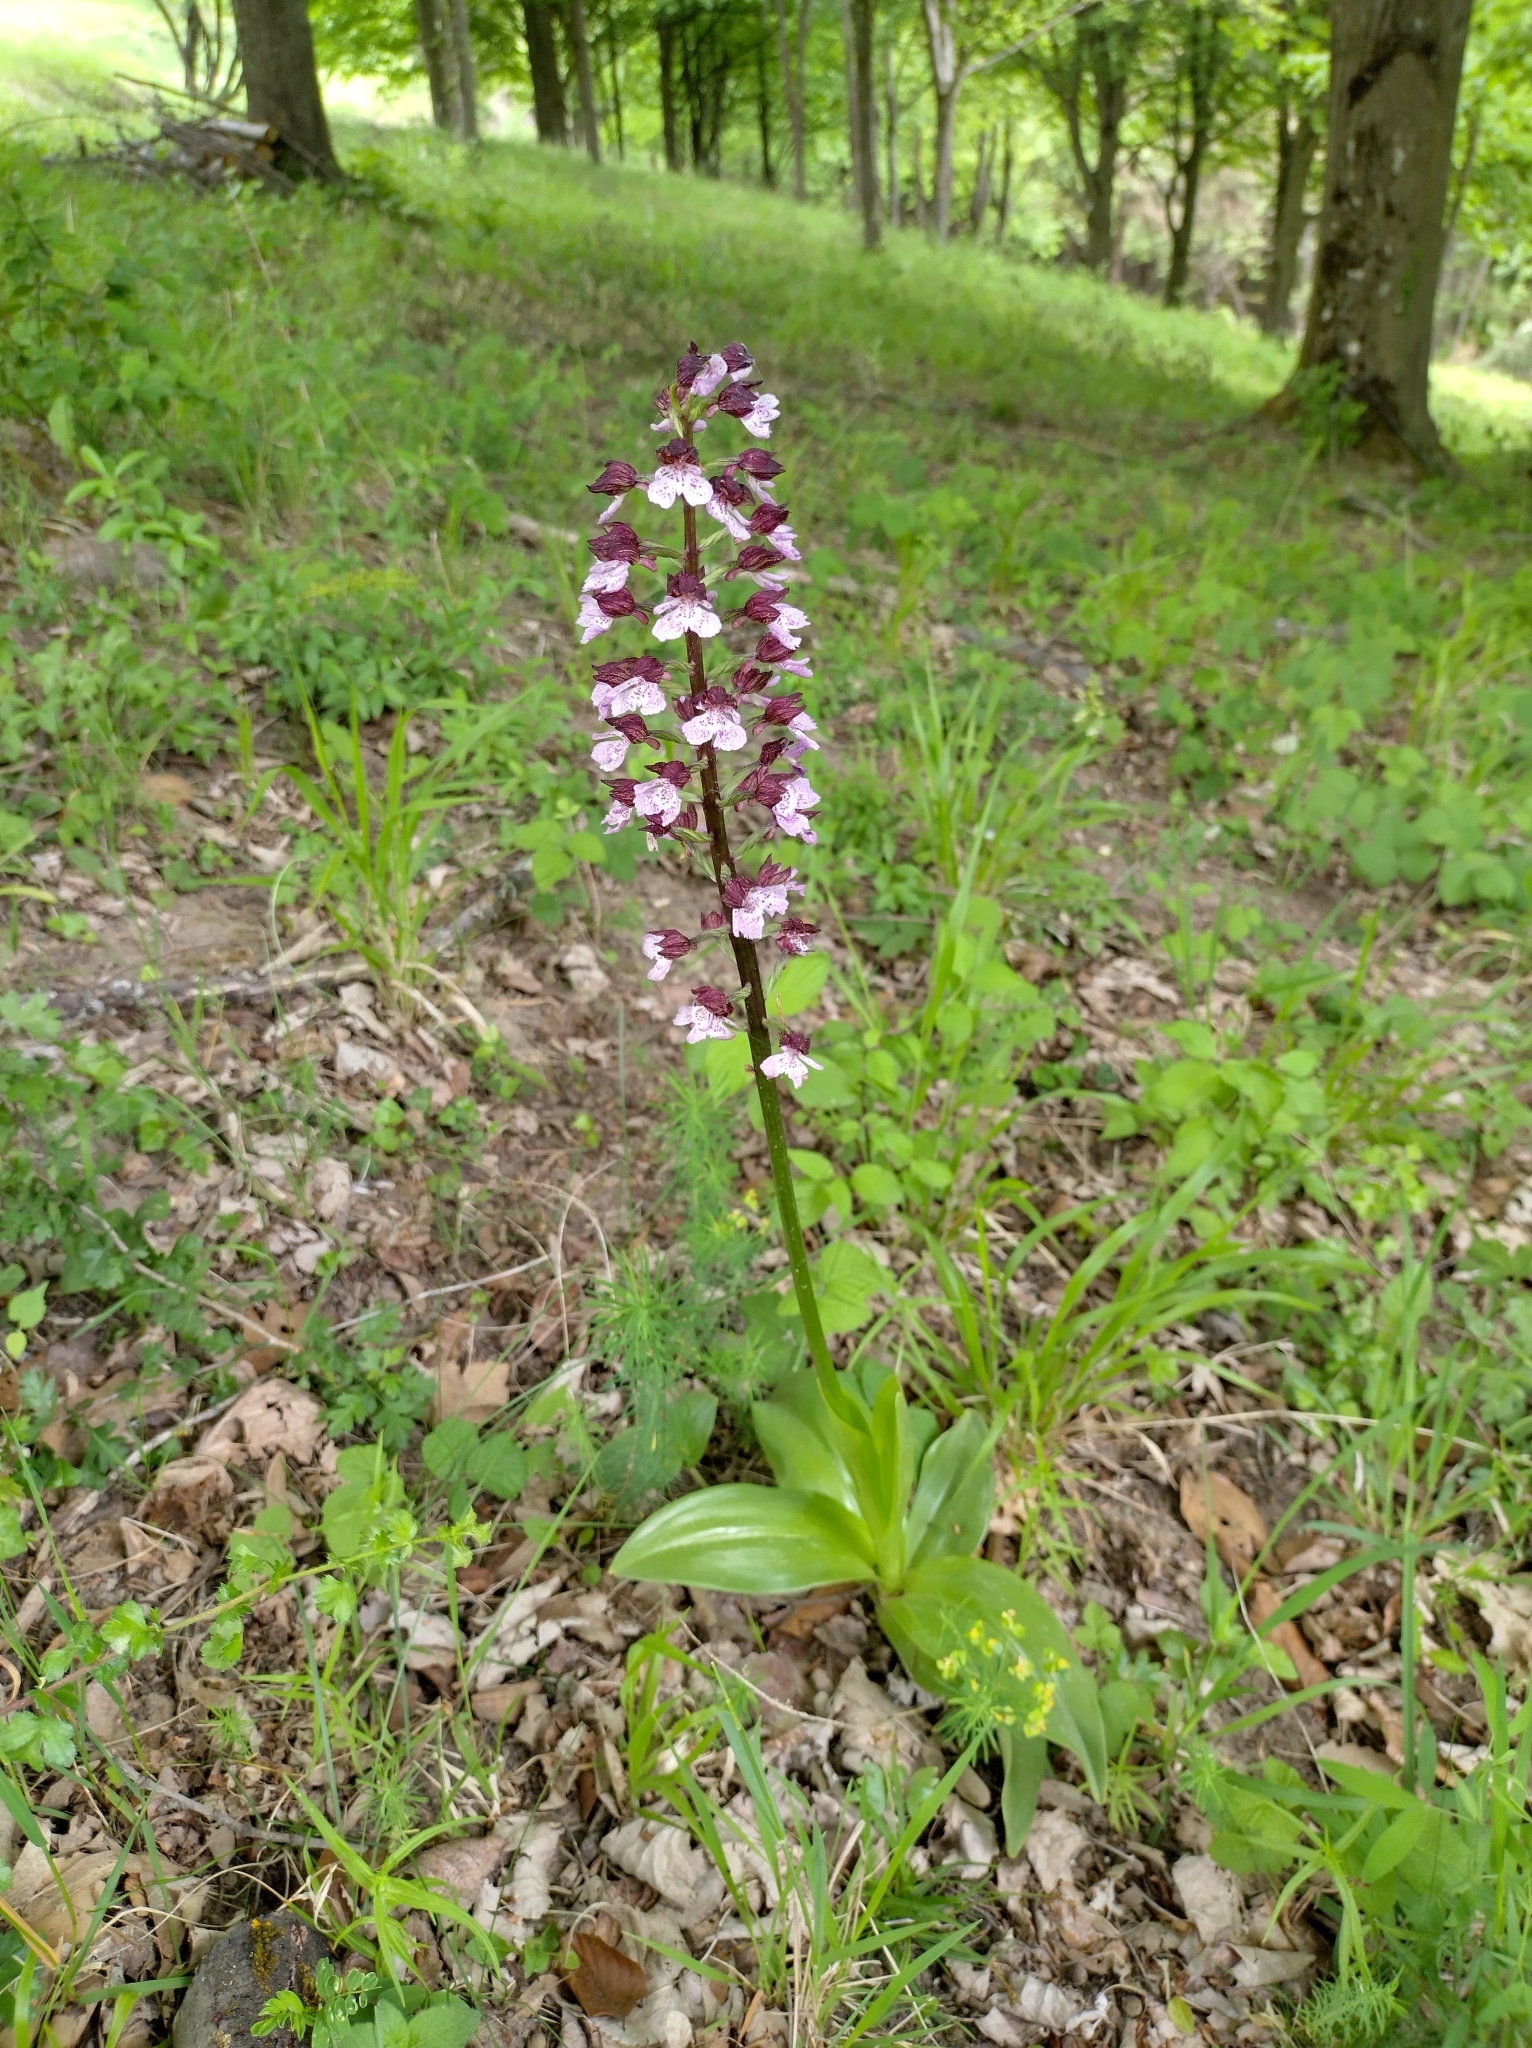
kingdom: Plantae
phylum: Tracheophyta
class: Liliopsida
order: Asparagales
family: Orchidaceae
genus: Orchis
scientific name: Orchis purpurea
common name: Lady orchid
